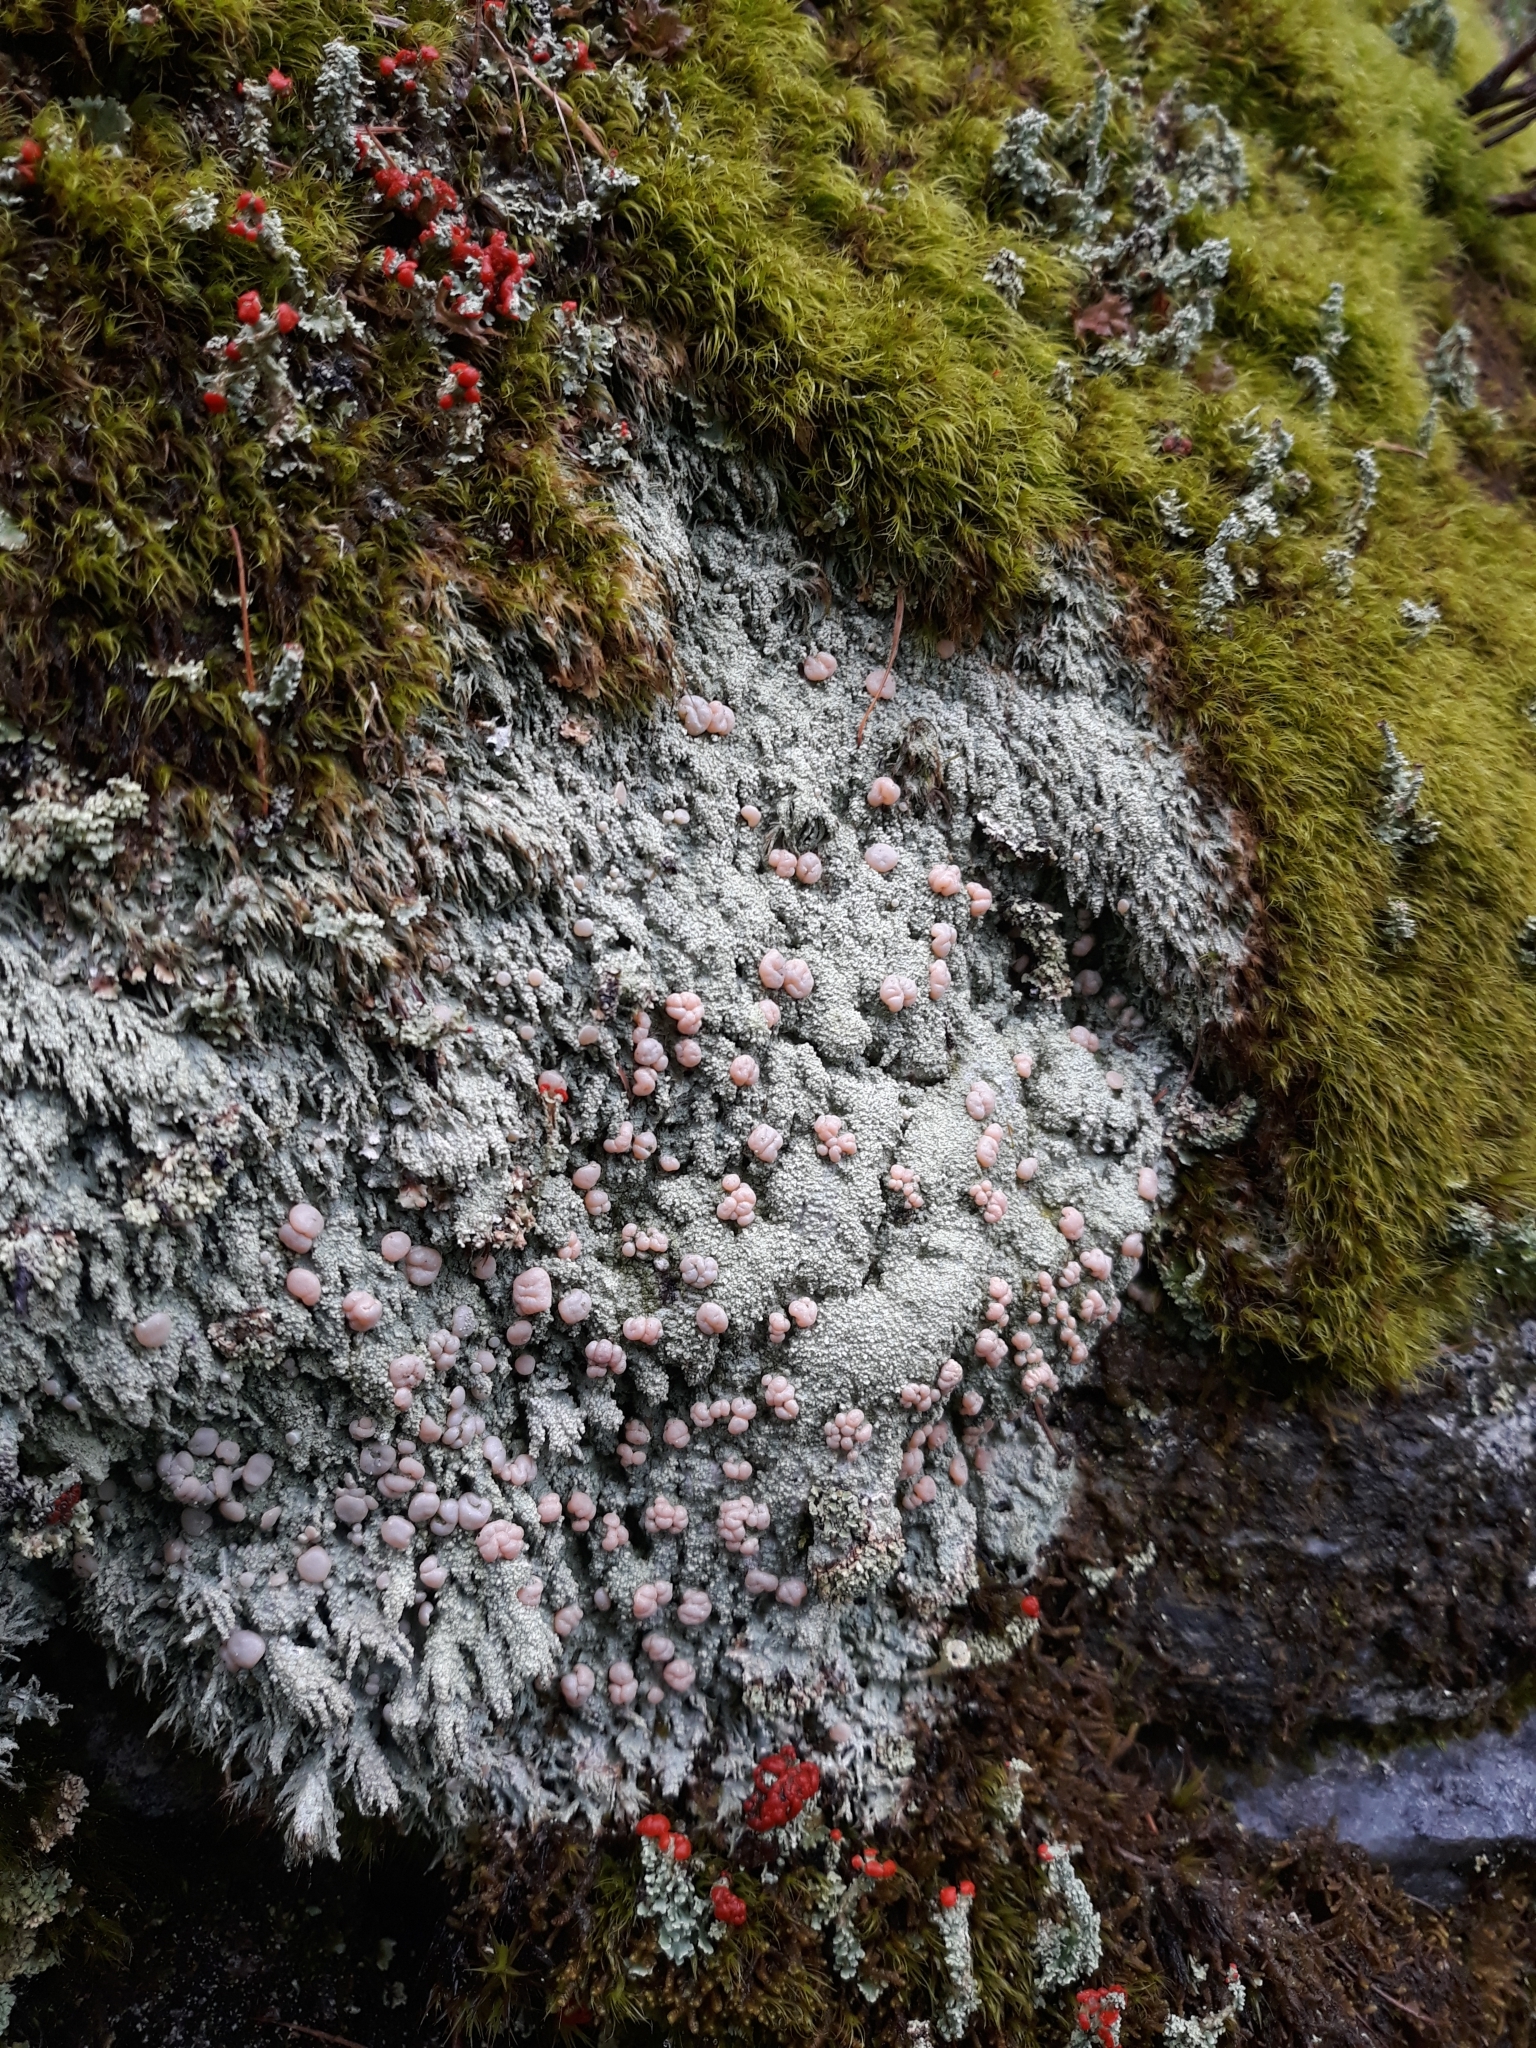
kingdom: Fungi
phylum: Ascomycota
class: Lecanoromycetes
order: Pertusariales
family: Icmadophilaceae
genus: Icmadophila
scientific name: Icmadophila ericetorum
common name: Candy lichen
